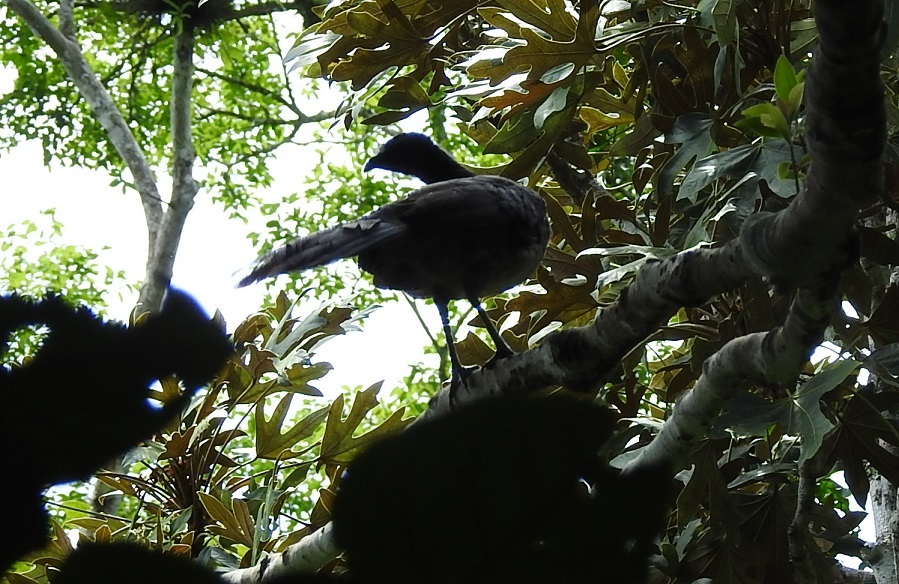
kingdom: Animalia
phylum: Chordata
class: Aves
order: Galliformes
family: Cracidae
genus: Ortalis
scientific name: Ortalis vetula
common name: Plain chachalaca
